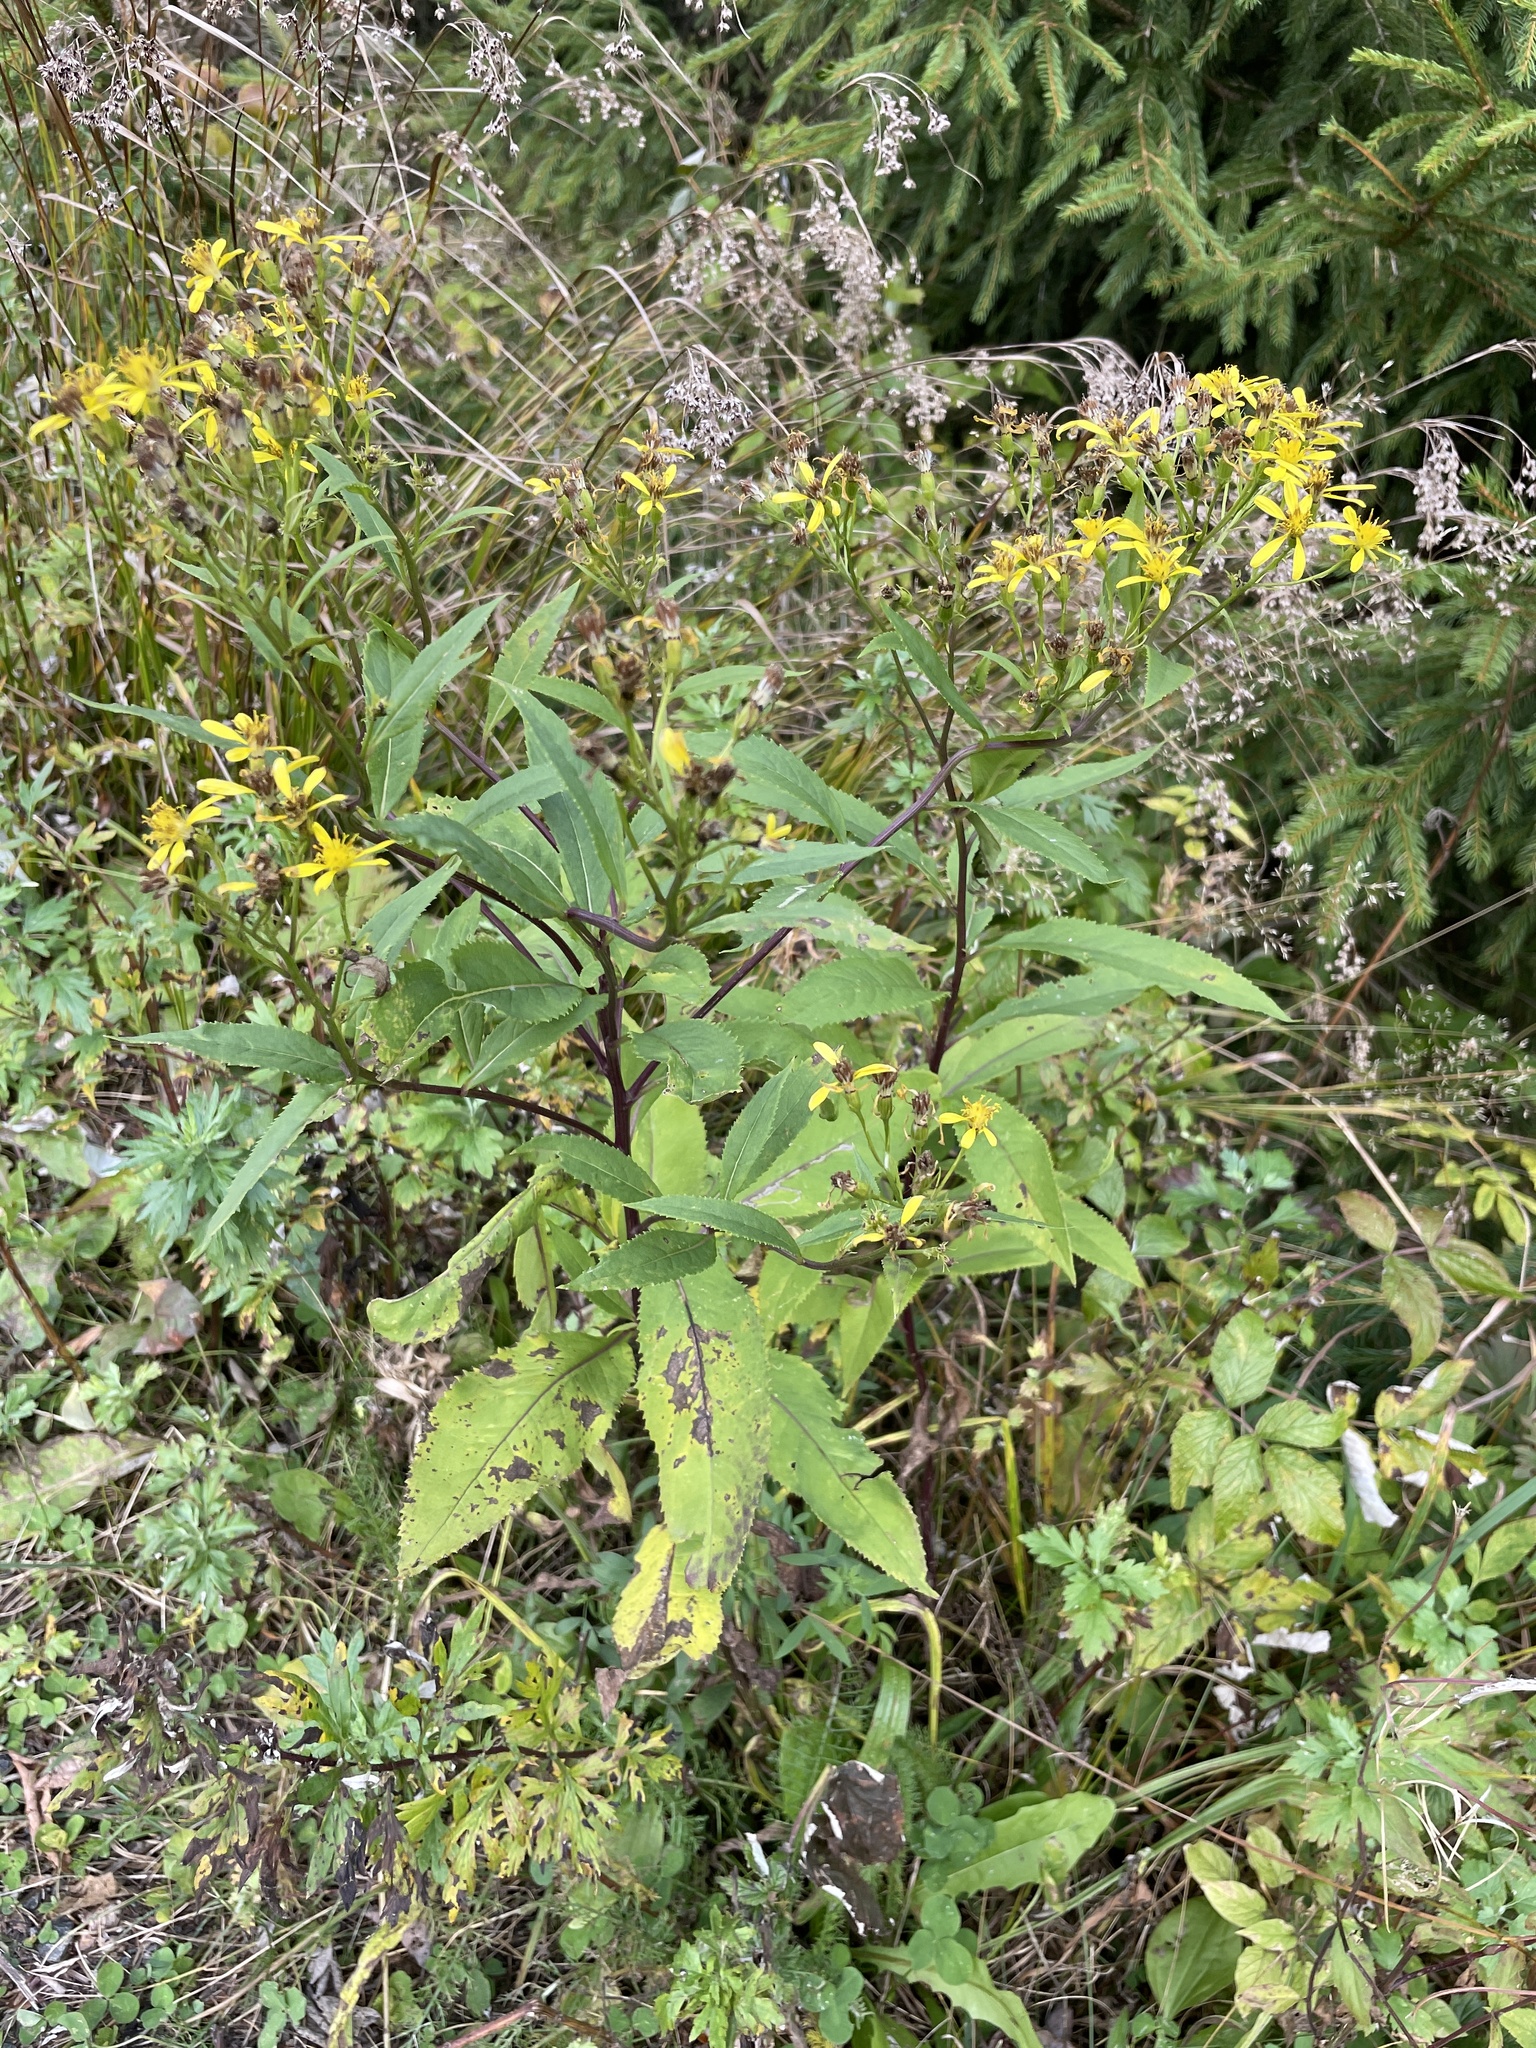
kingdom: Plantae
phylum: Tracheophyta
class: Magnoliopsida
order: Asterales
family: Asteraceae
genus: Senecio
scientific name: Senecio ovatus
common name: Wood ragwort
